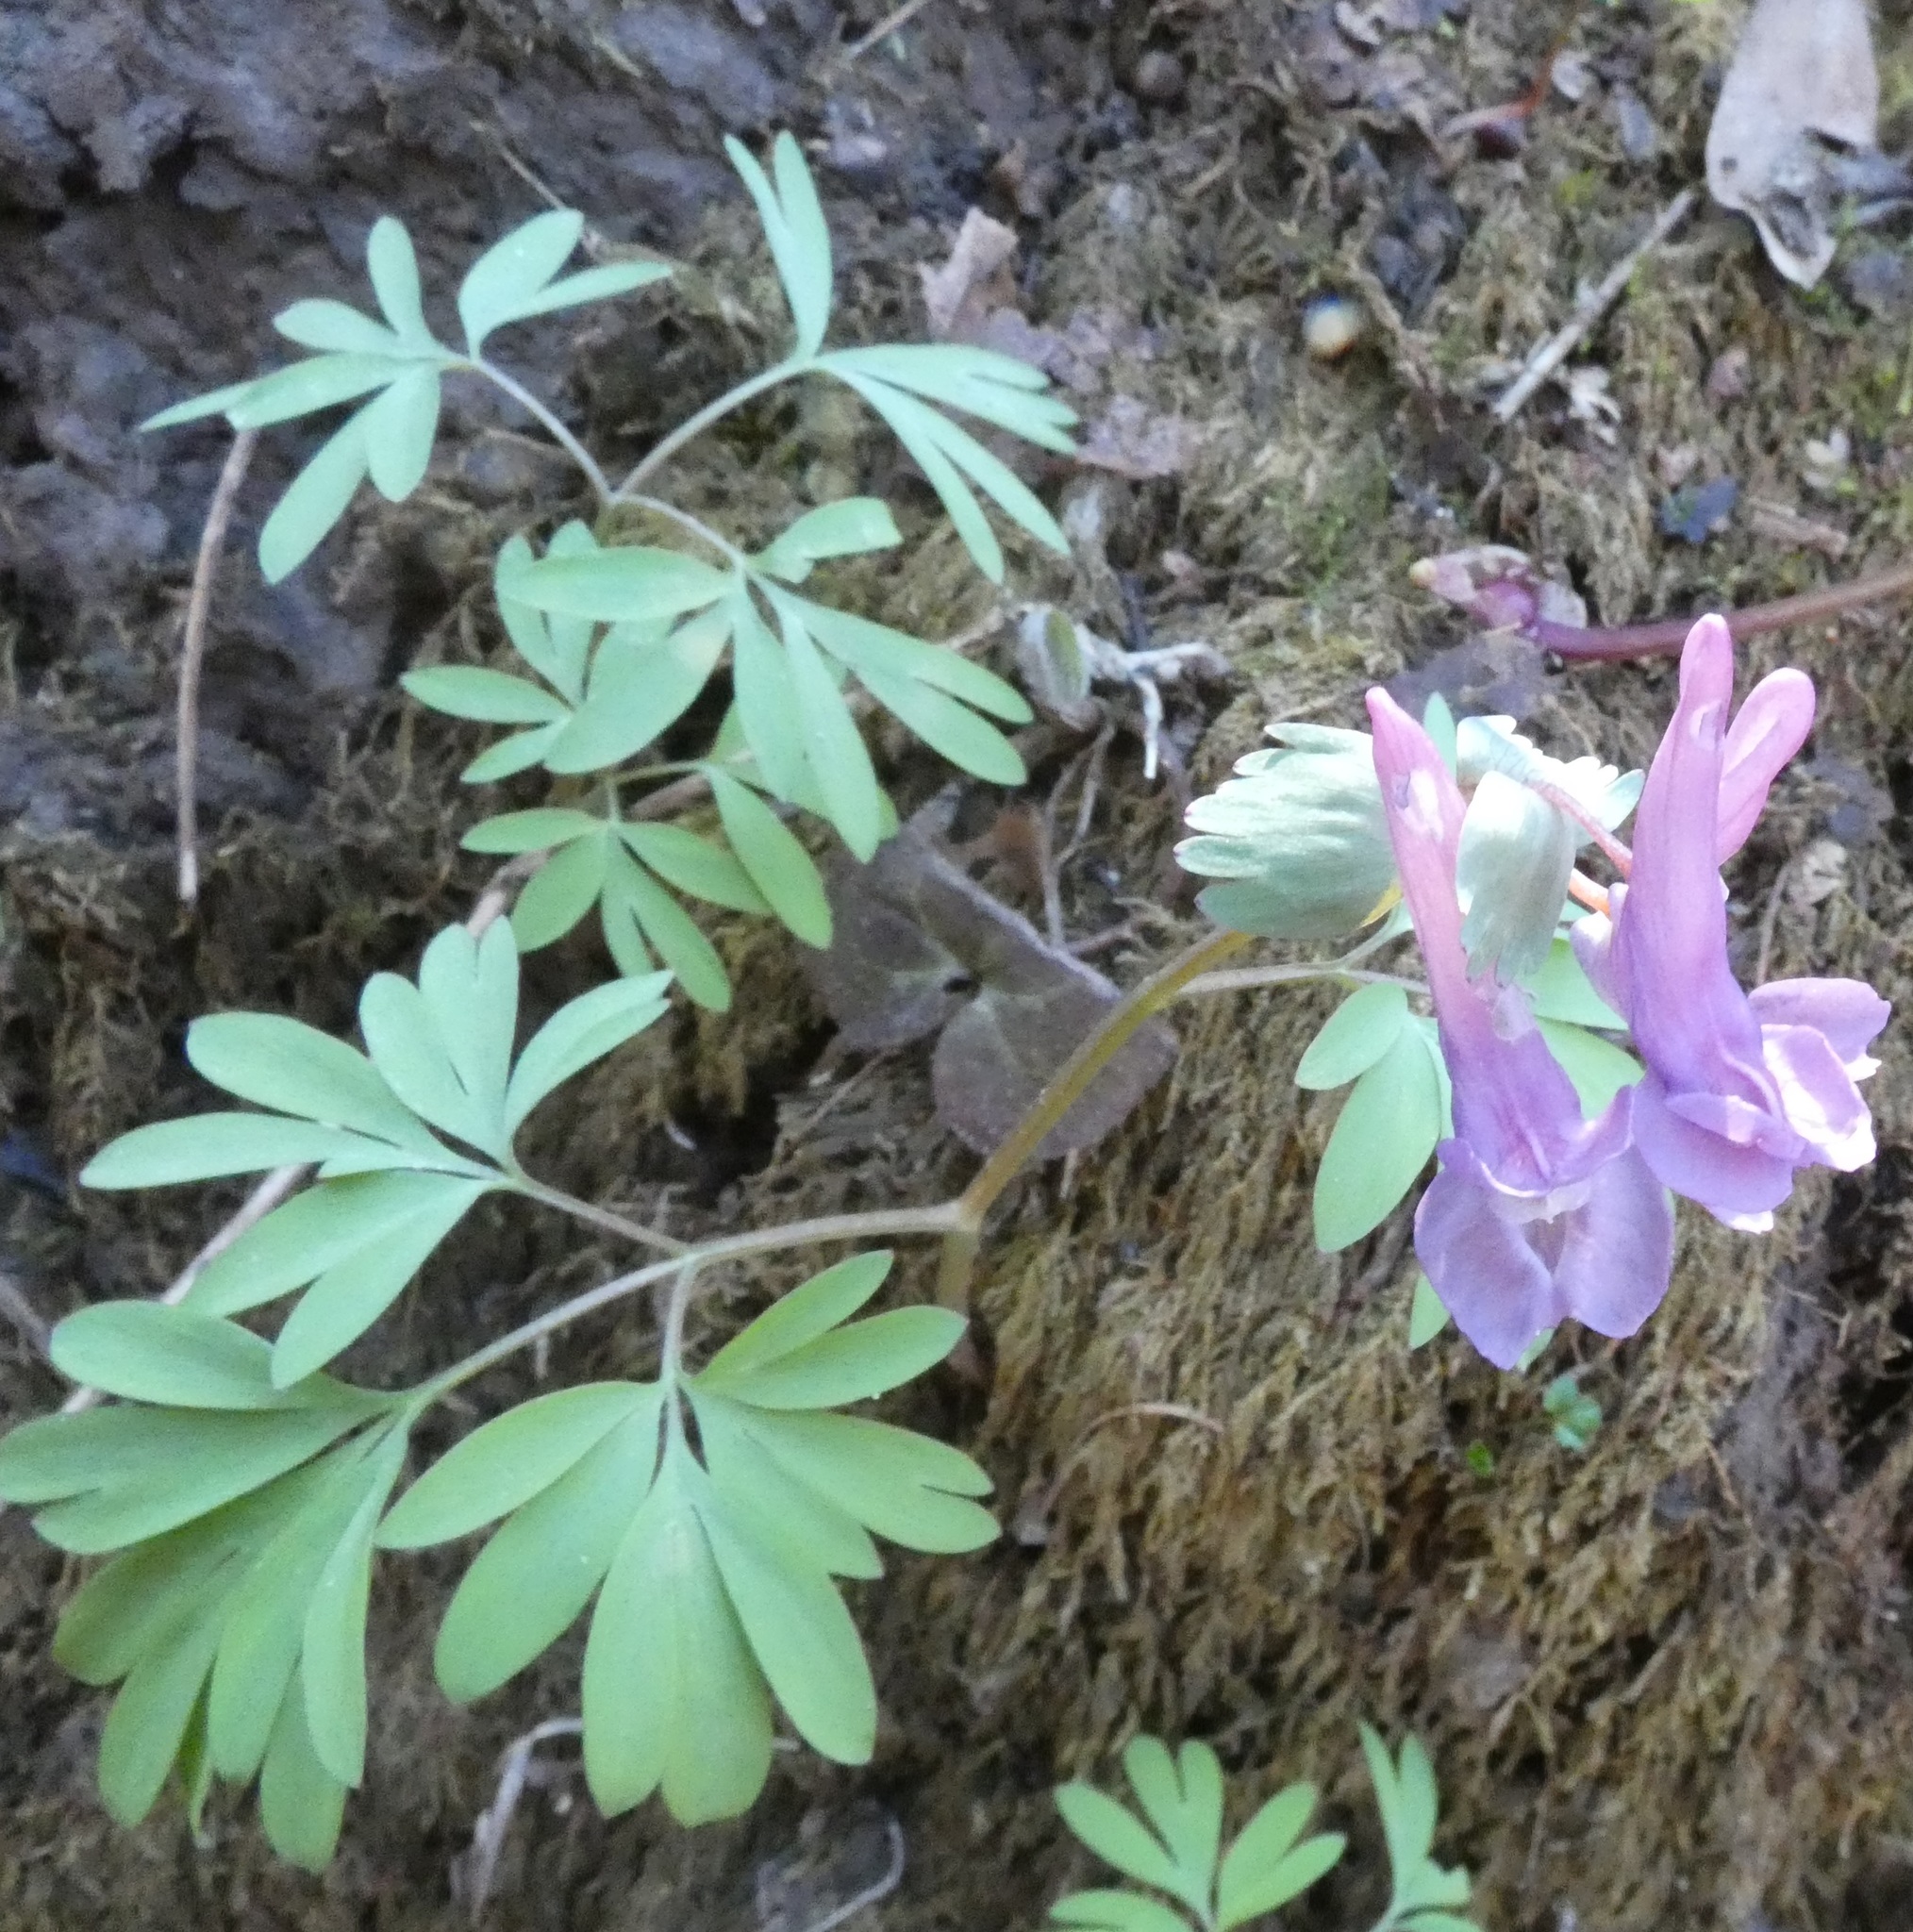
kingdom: Plantae
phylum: Tracheophyta
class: Magnoliopsida
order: Ranunculales
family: Papaveraceae
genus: Corydalis
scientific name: Corydalis solida
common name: Bird-in-a-bush
